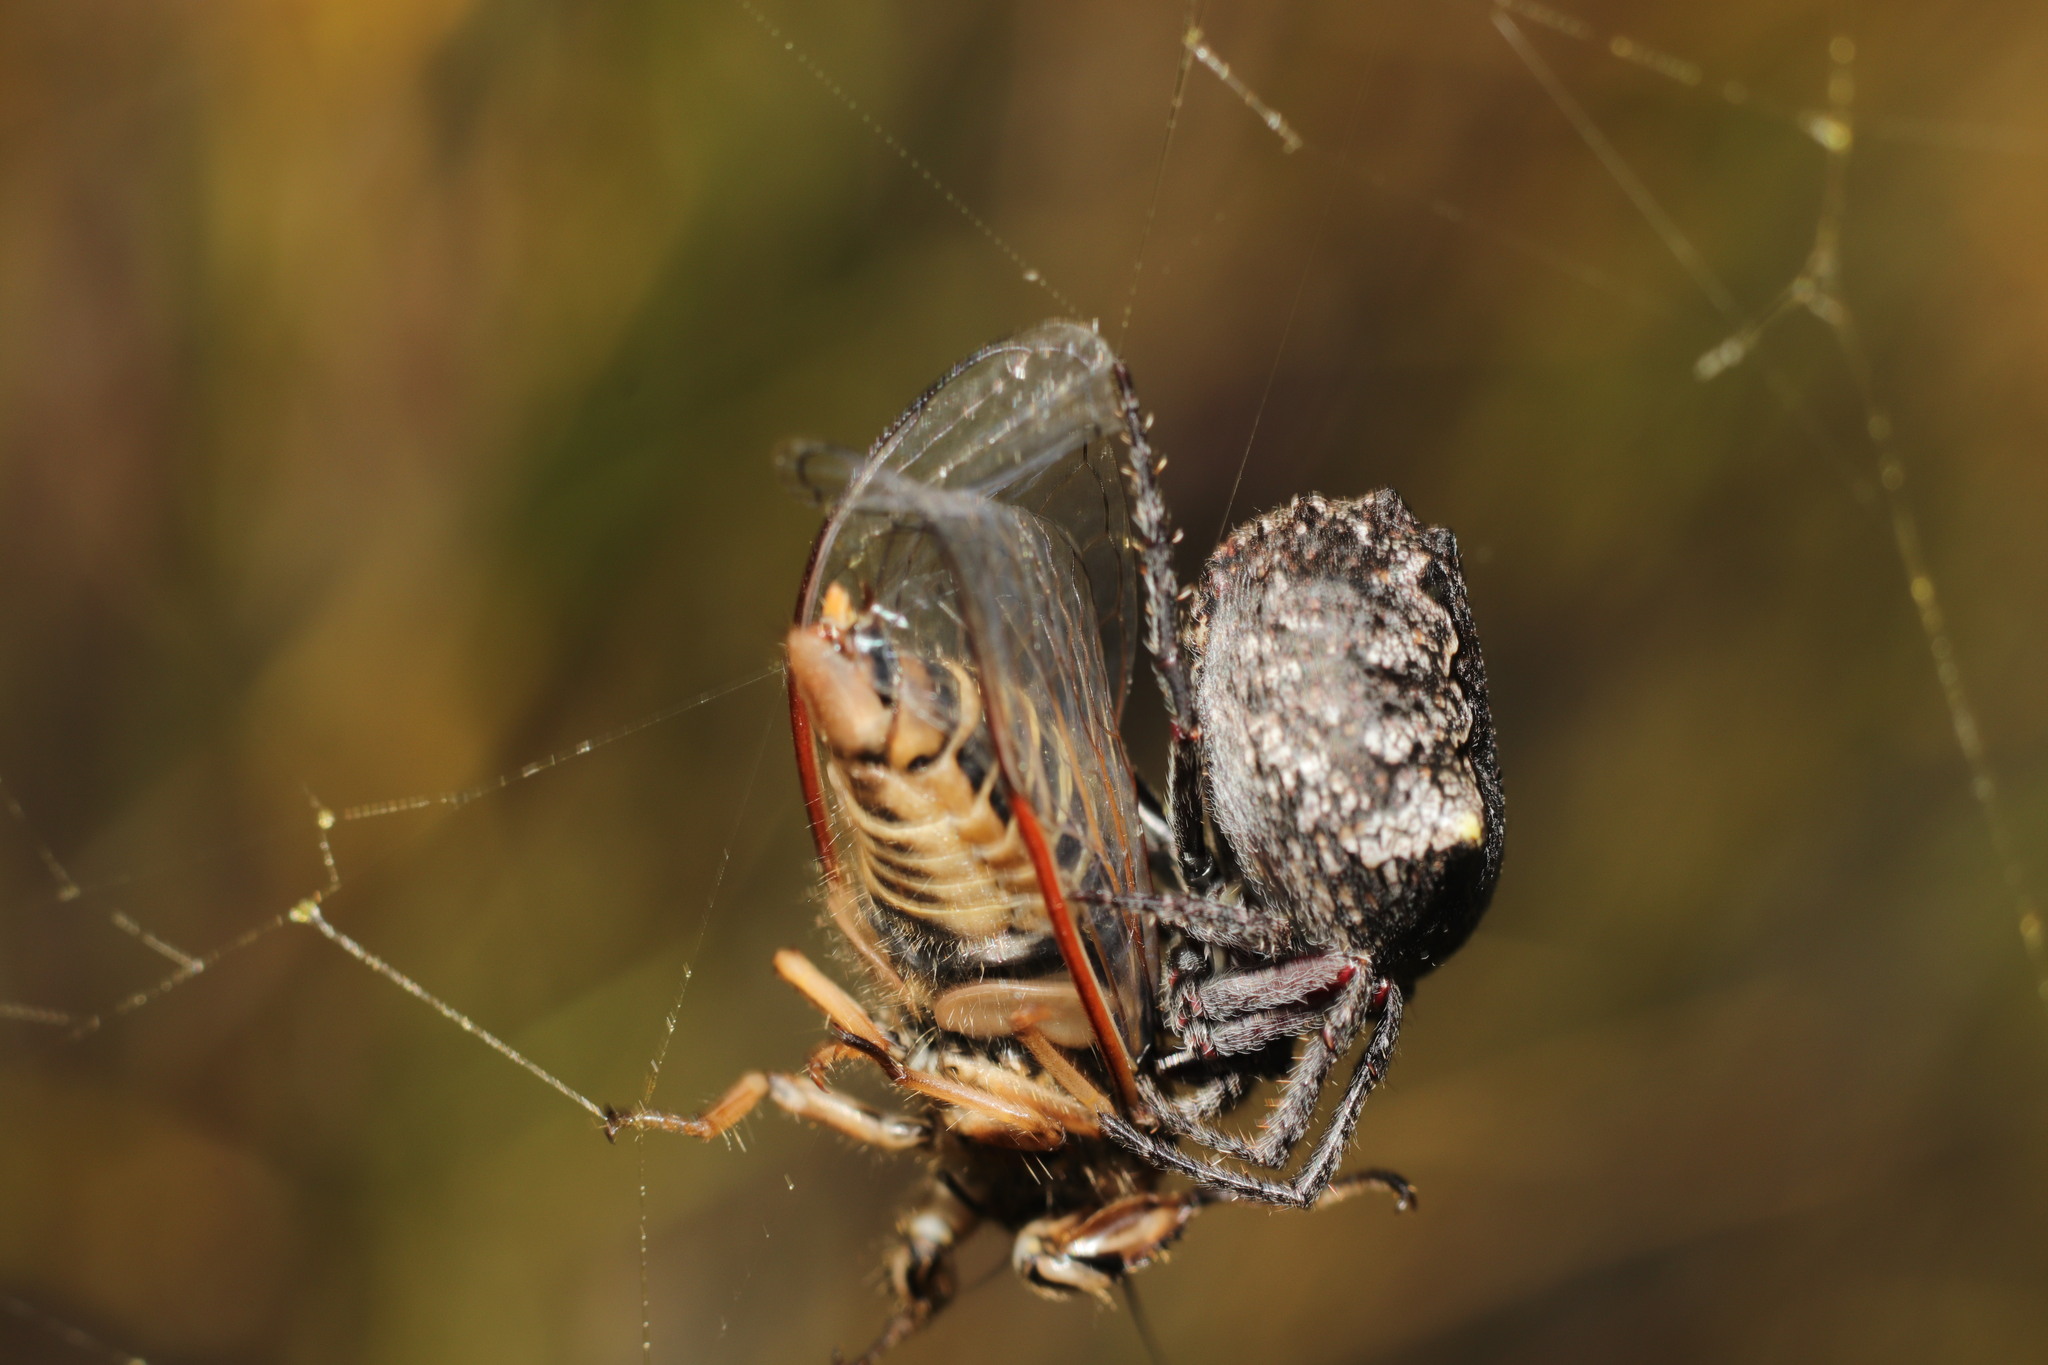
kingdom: Animalia
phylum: Arthropoda
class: Arachnida
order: Araneae
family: Araneidae
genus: Eriophora
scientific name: Eriophora pustulosa
